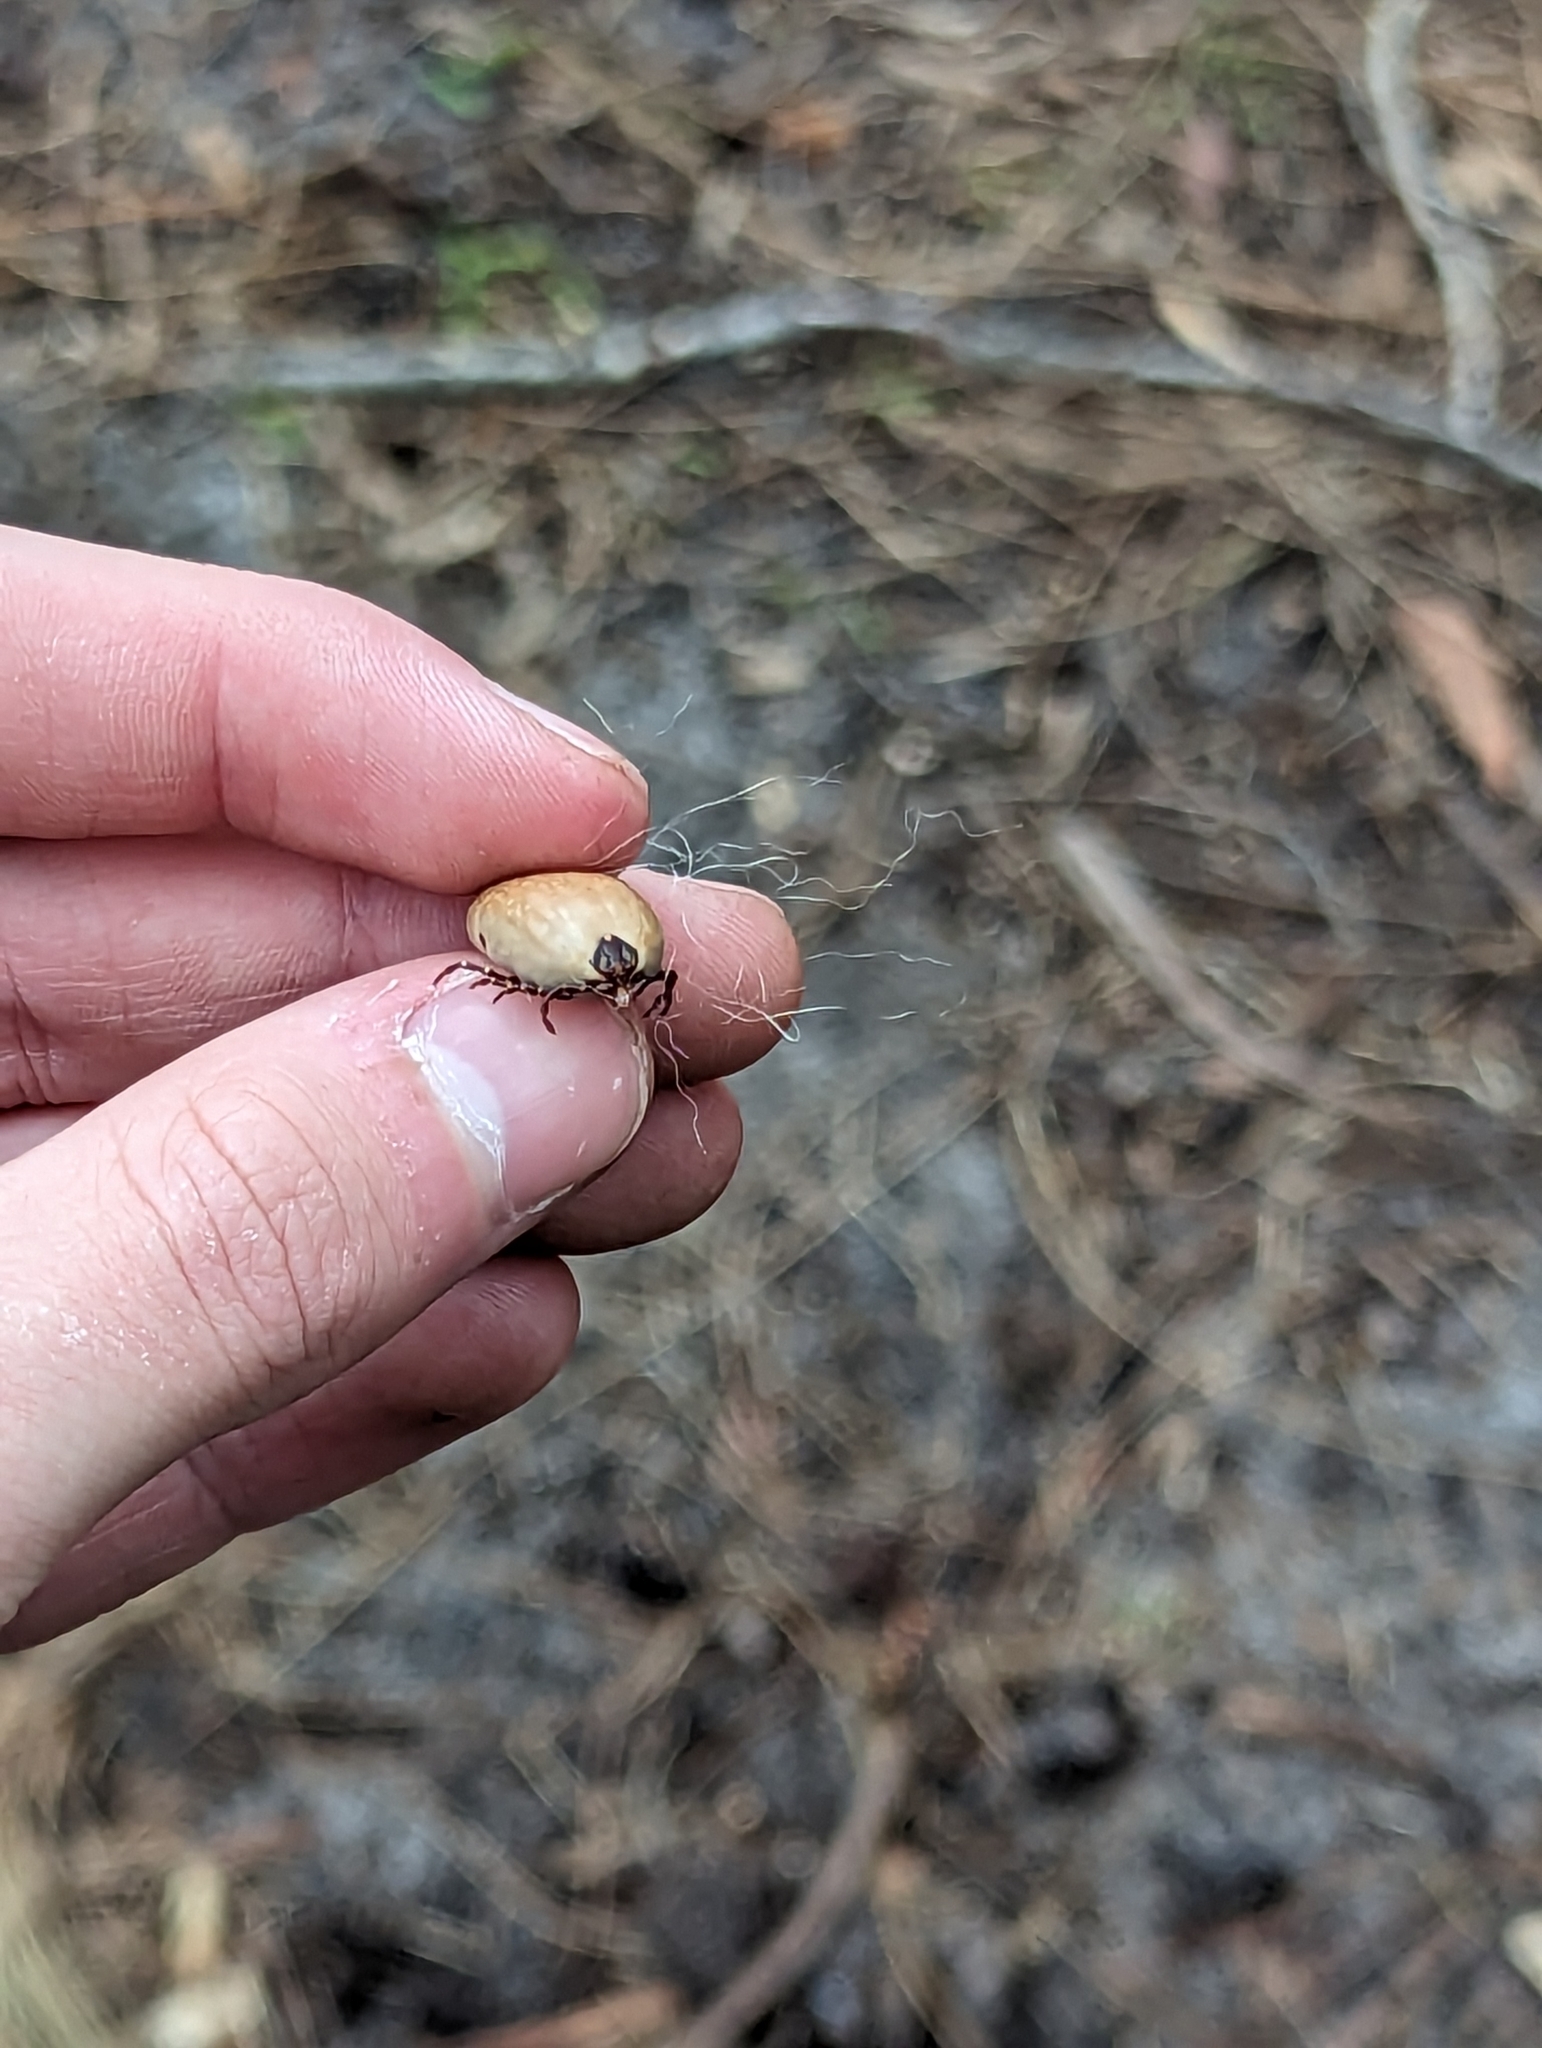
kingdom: Animalia
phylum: Arthropoda
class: Arachnida
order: Ixodida
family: Ixodidae
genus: Amblyomma
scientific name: Amblyomma triguttatum
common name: Kangaroo hard tick
